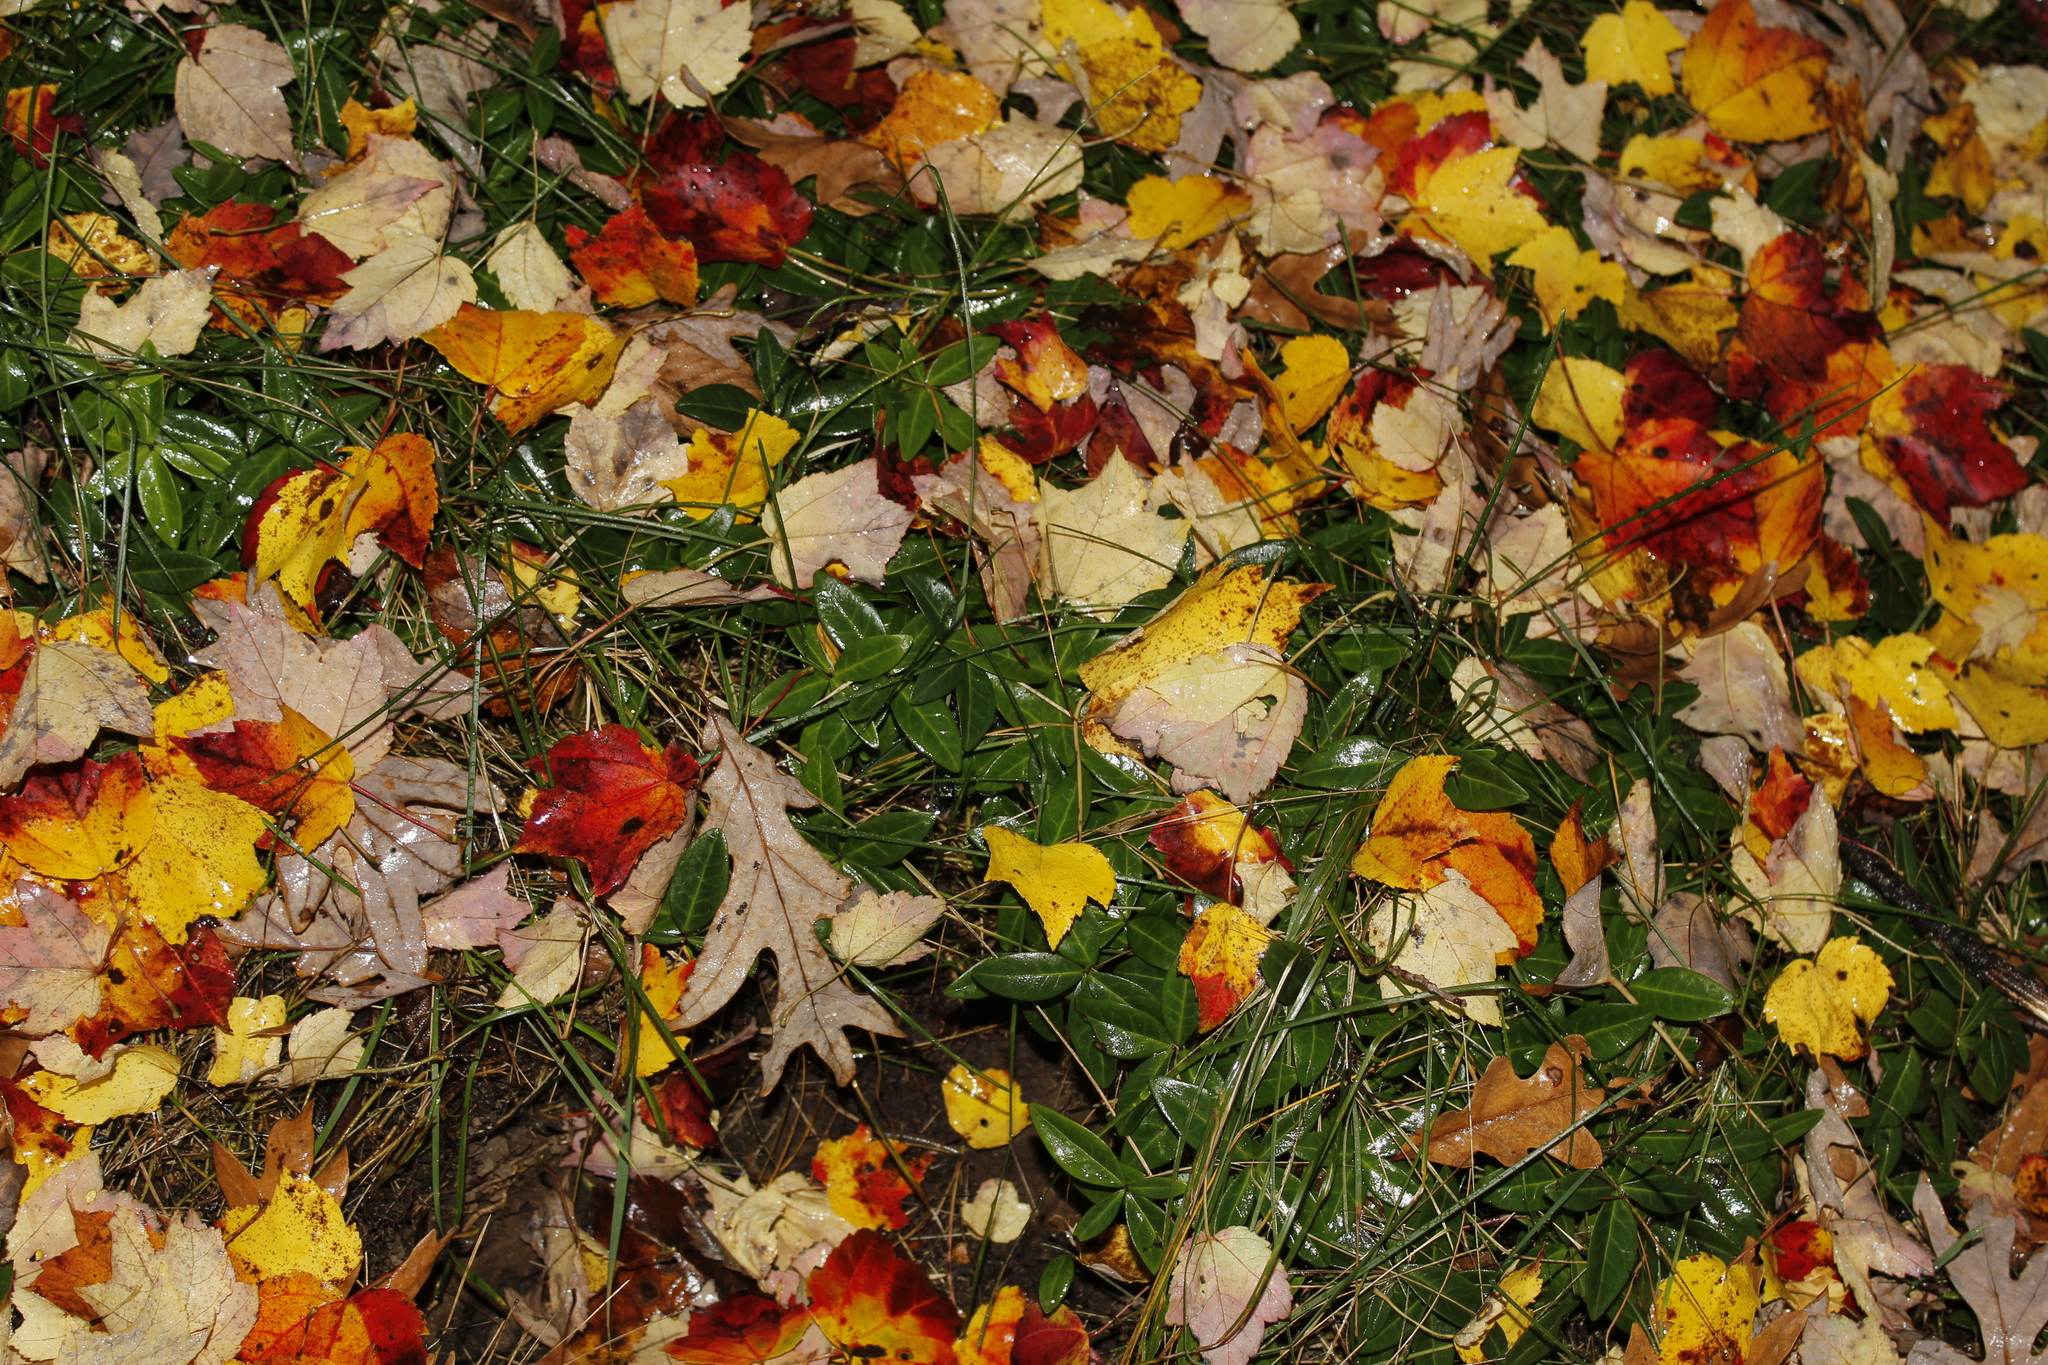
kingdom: Plantae
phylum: Tracheophyta
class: Magnoliopsida
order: Gentianales
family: Apocynaceae
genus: Vinca
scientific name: Vinca minor
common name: Lesser periwinkle
